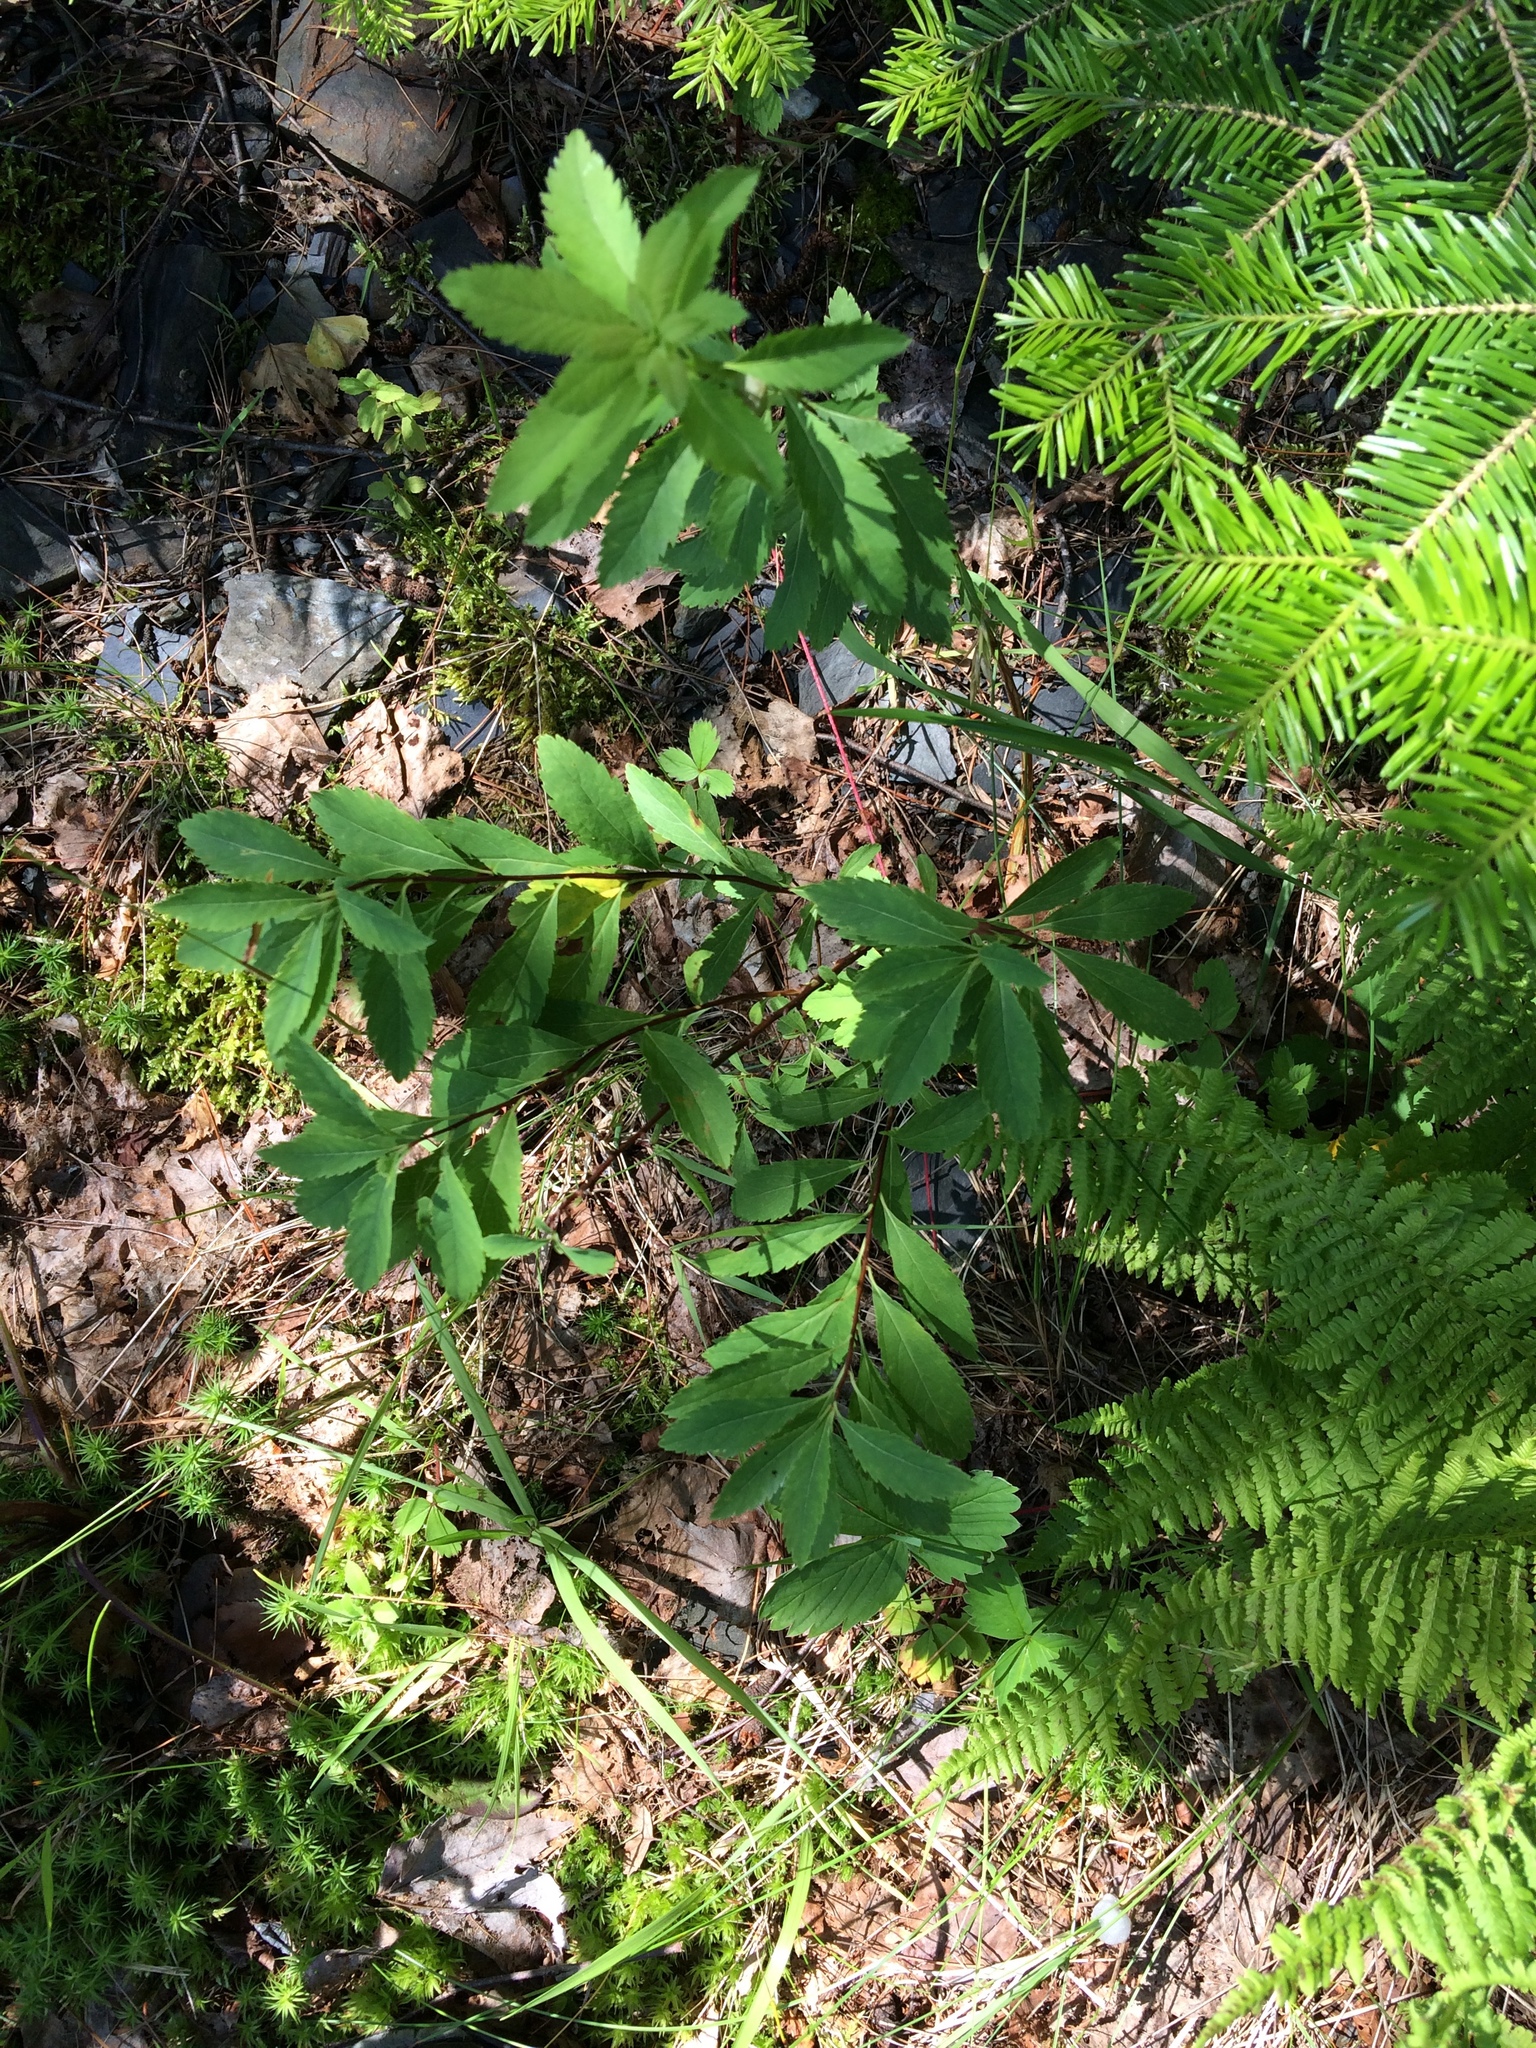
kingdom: Plantae
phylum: Tracheophyta
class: Magnoliopsida
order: Rosales
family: Rosaceae
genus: Spiraea
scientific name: Spiraea alba
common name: Pale bridewort
